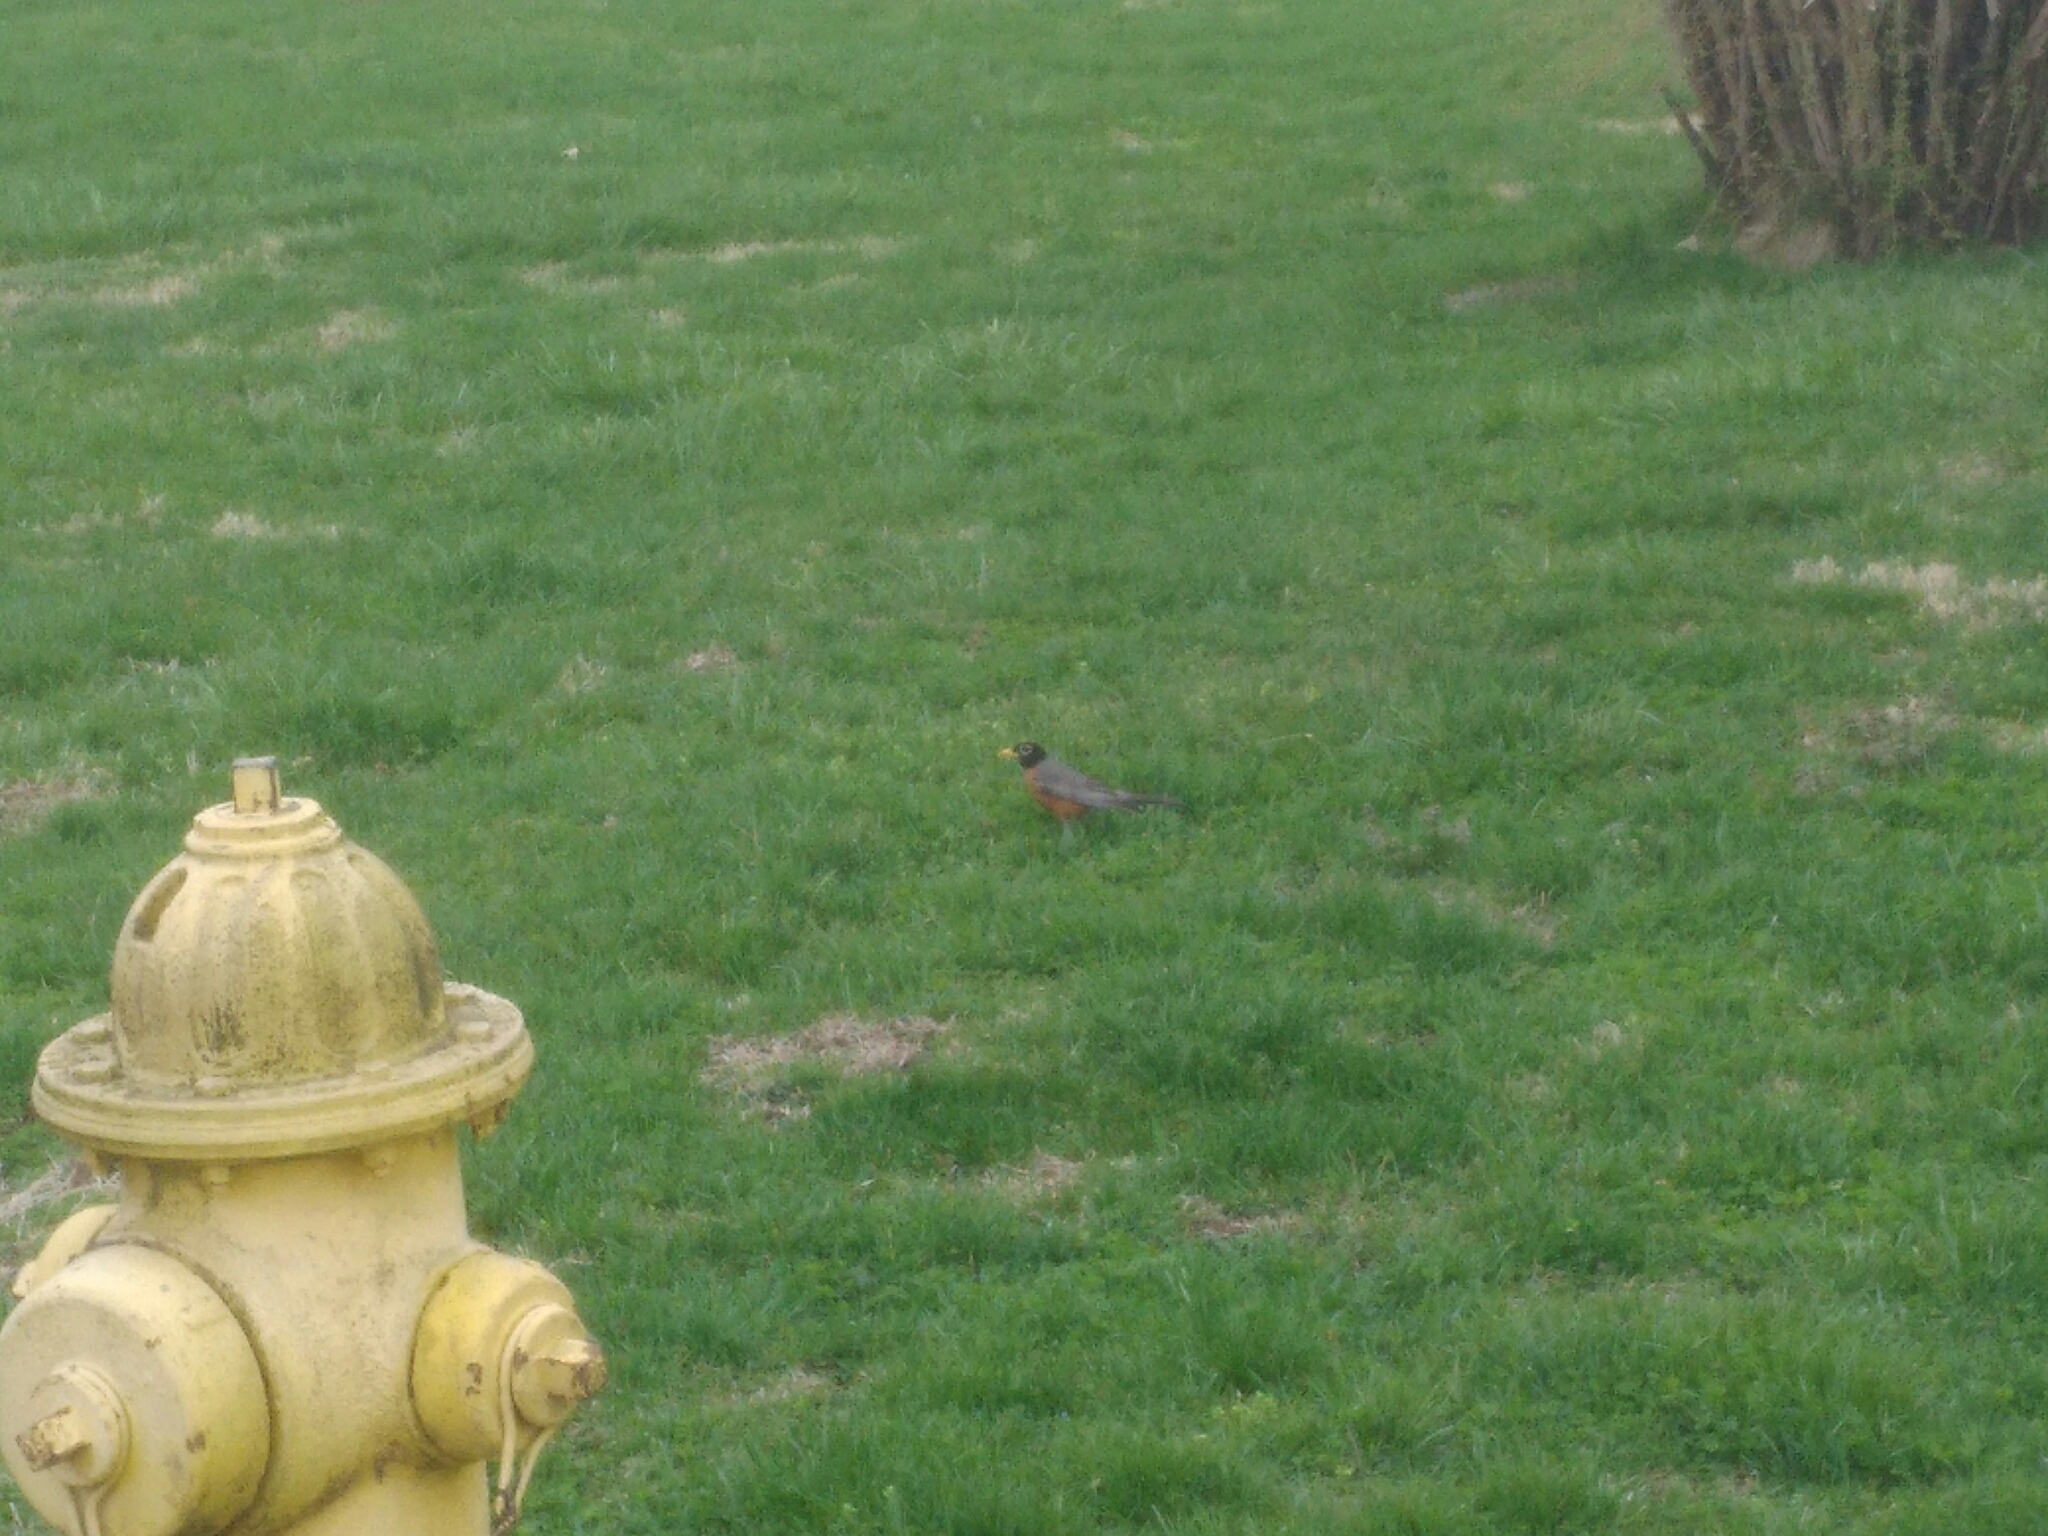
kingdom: Animalia
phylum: Chordata
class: Aves
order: Passeriformes
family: Turdidae
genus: Turdus
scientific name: Turdus migratorius
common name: American robin
